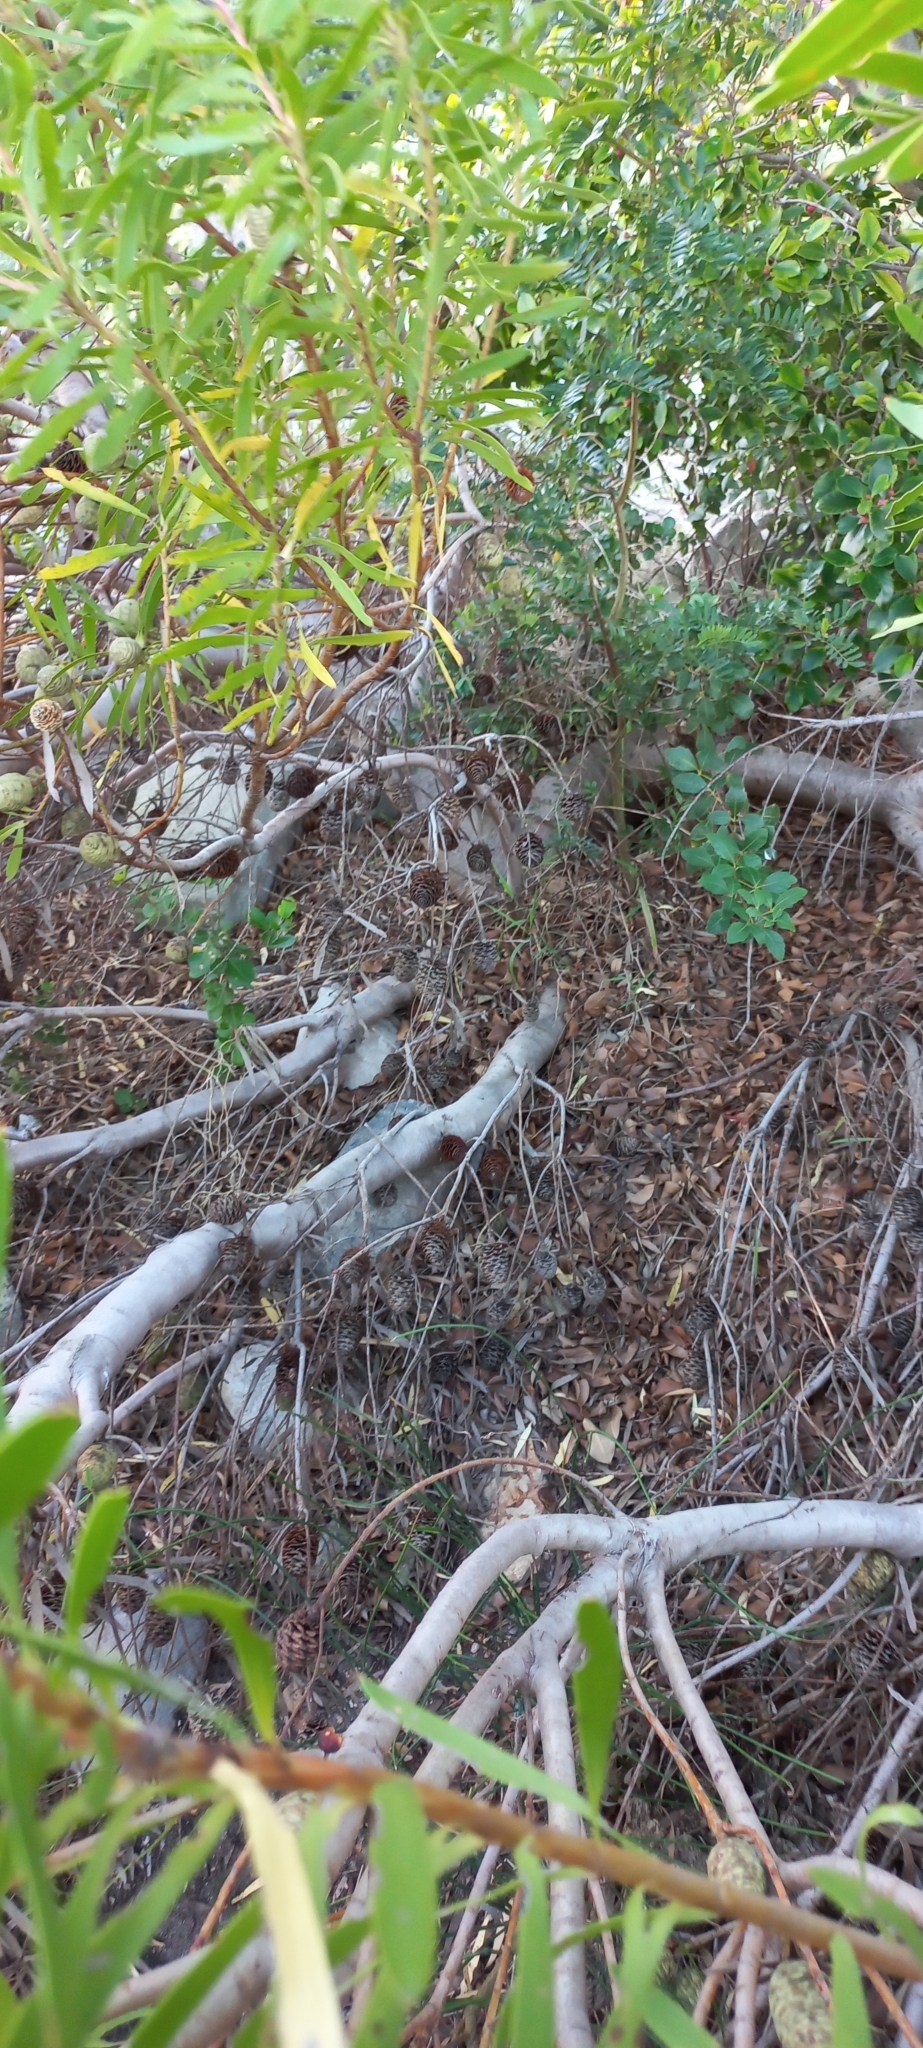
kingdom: Plantae
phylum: Tracheophyta
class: Magnoliopsida
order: Proteales
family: Proteaceae
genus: Leucadendron
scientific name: Leucadendron coniferum
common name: Dune conebush
